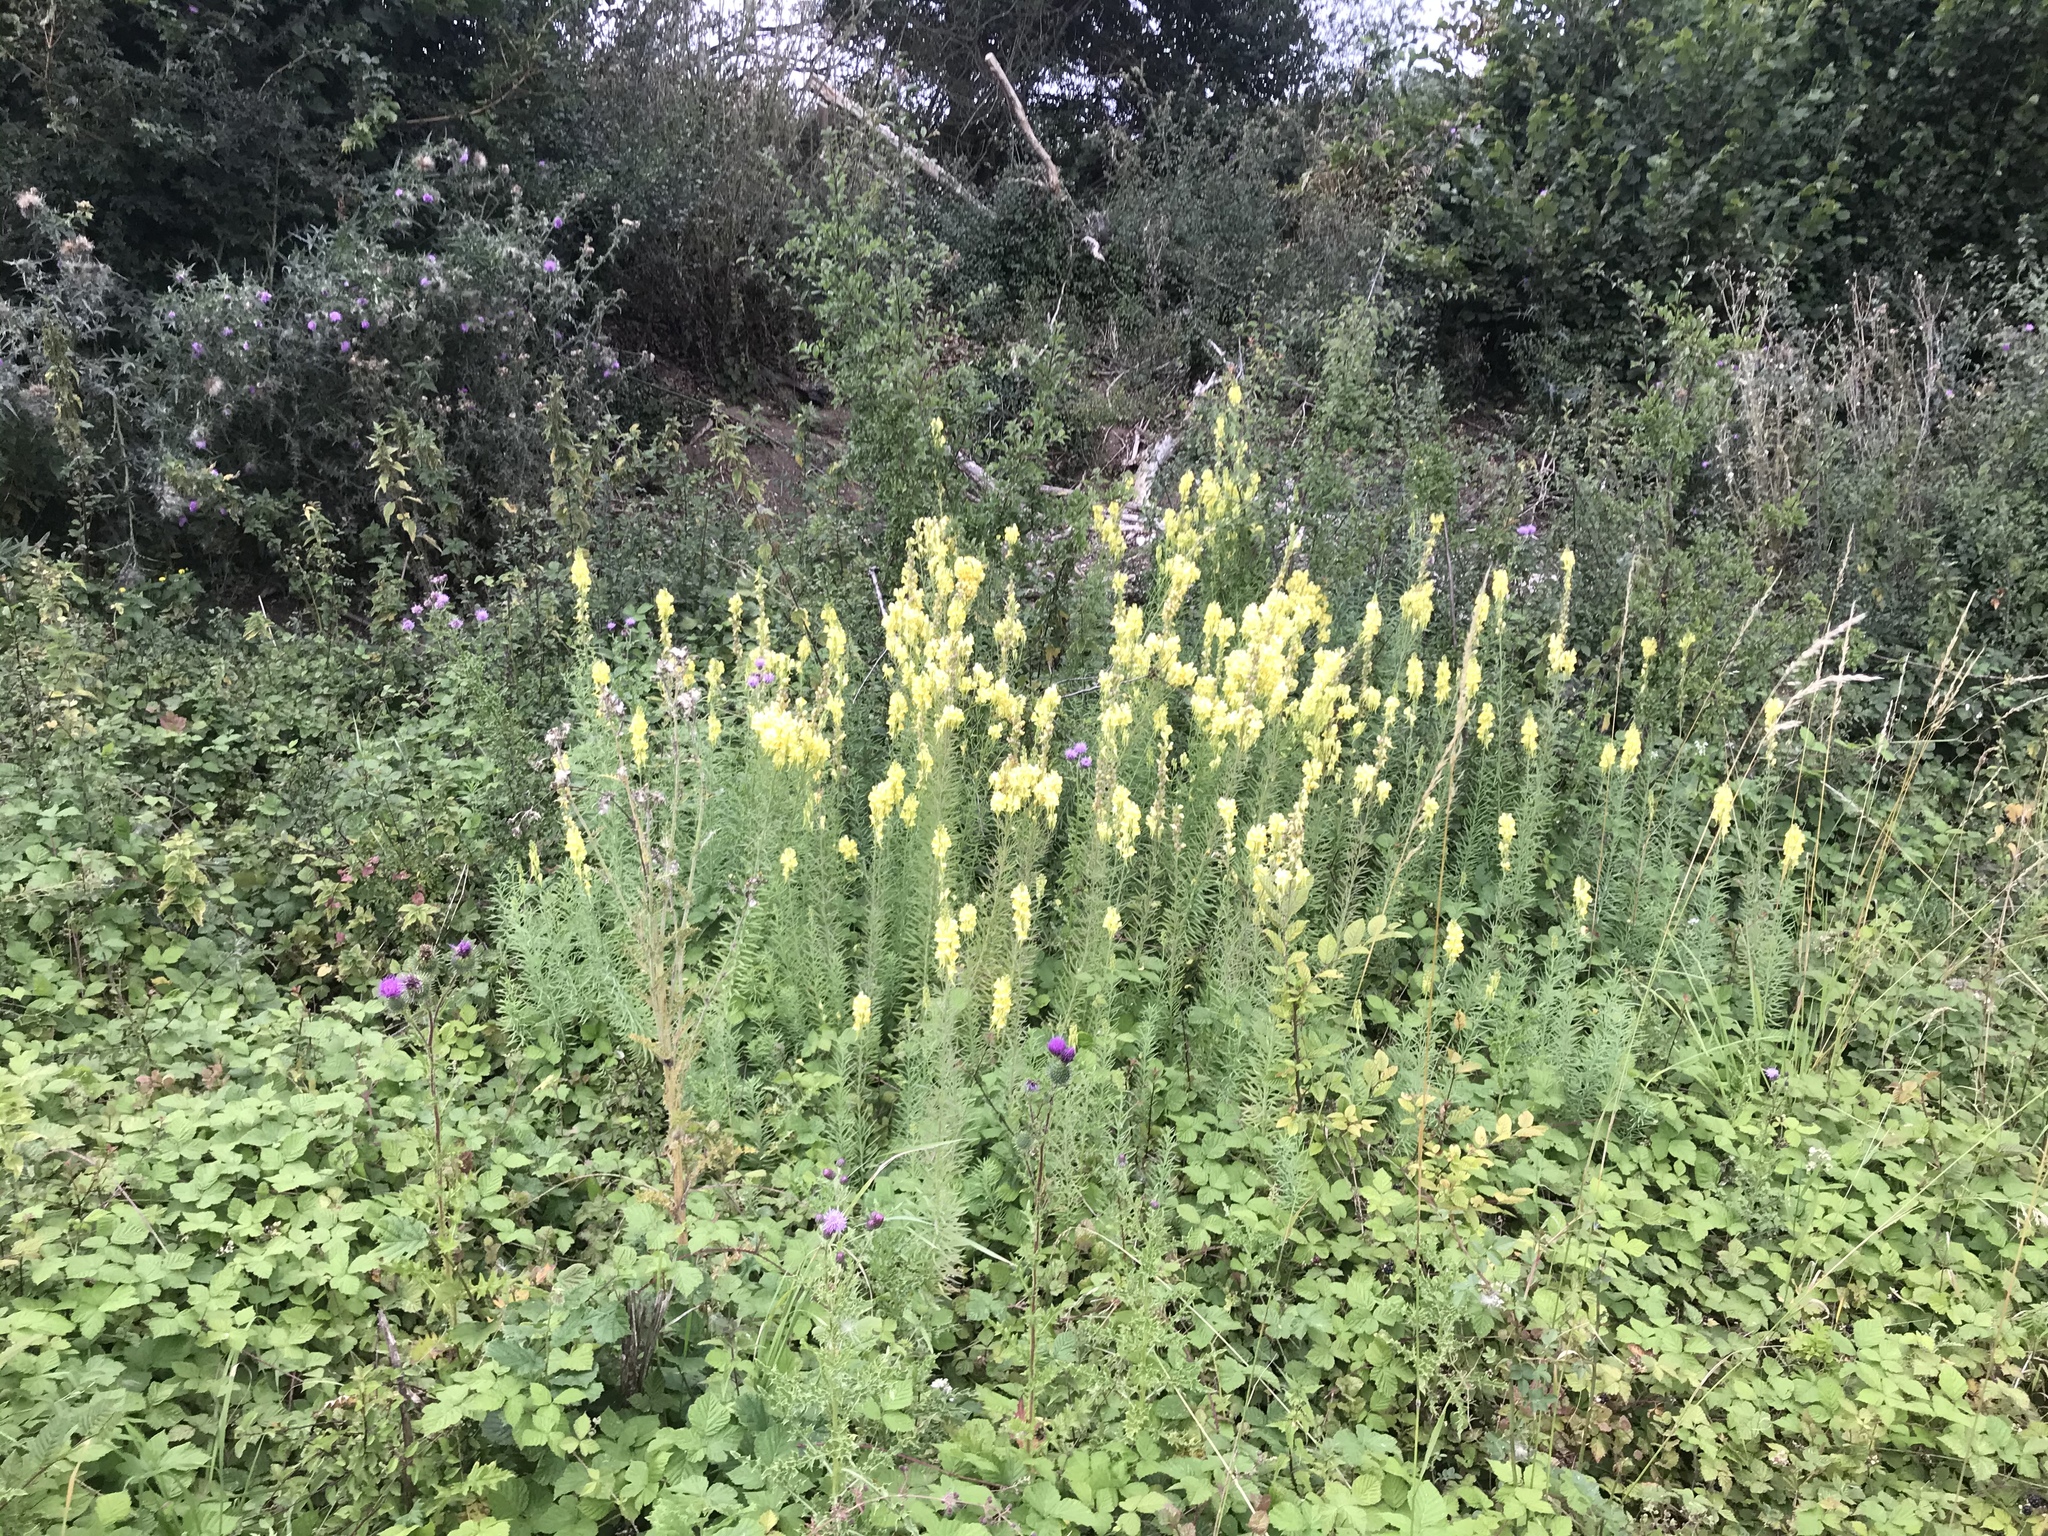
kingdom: Plantae
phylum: Tracheophyta
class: Magnoliopsida
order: Lamiales
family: Plantaginaceae
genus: Linaria
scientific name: Linaria vulgaris
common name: Butter and eggs
